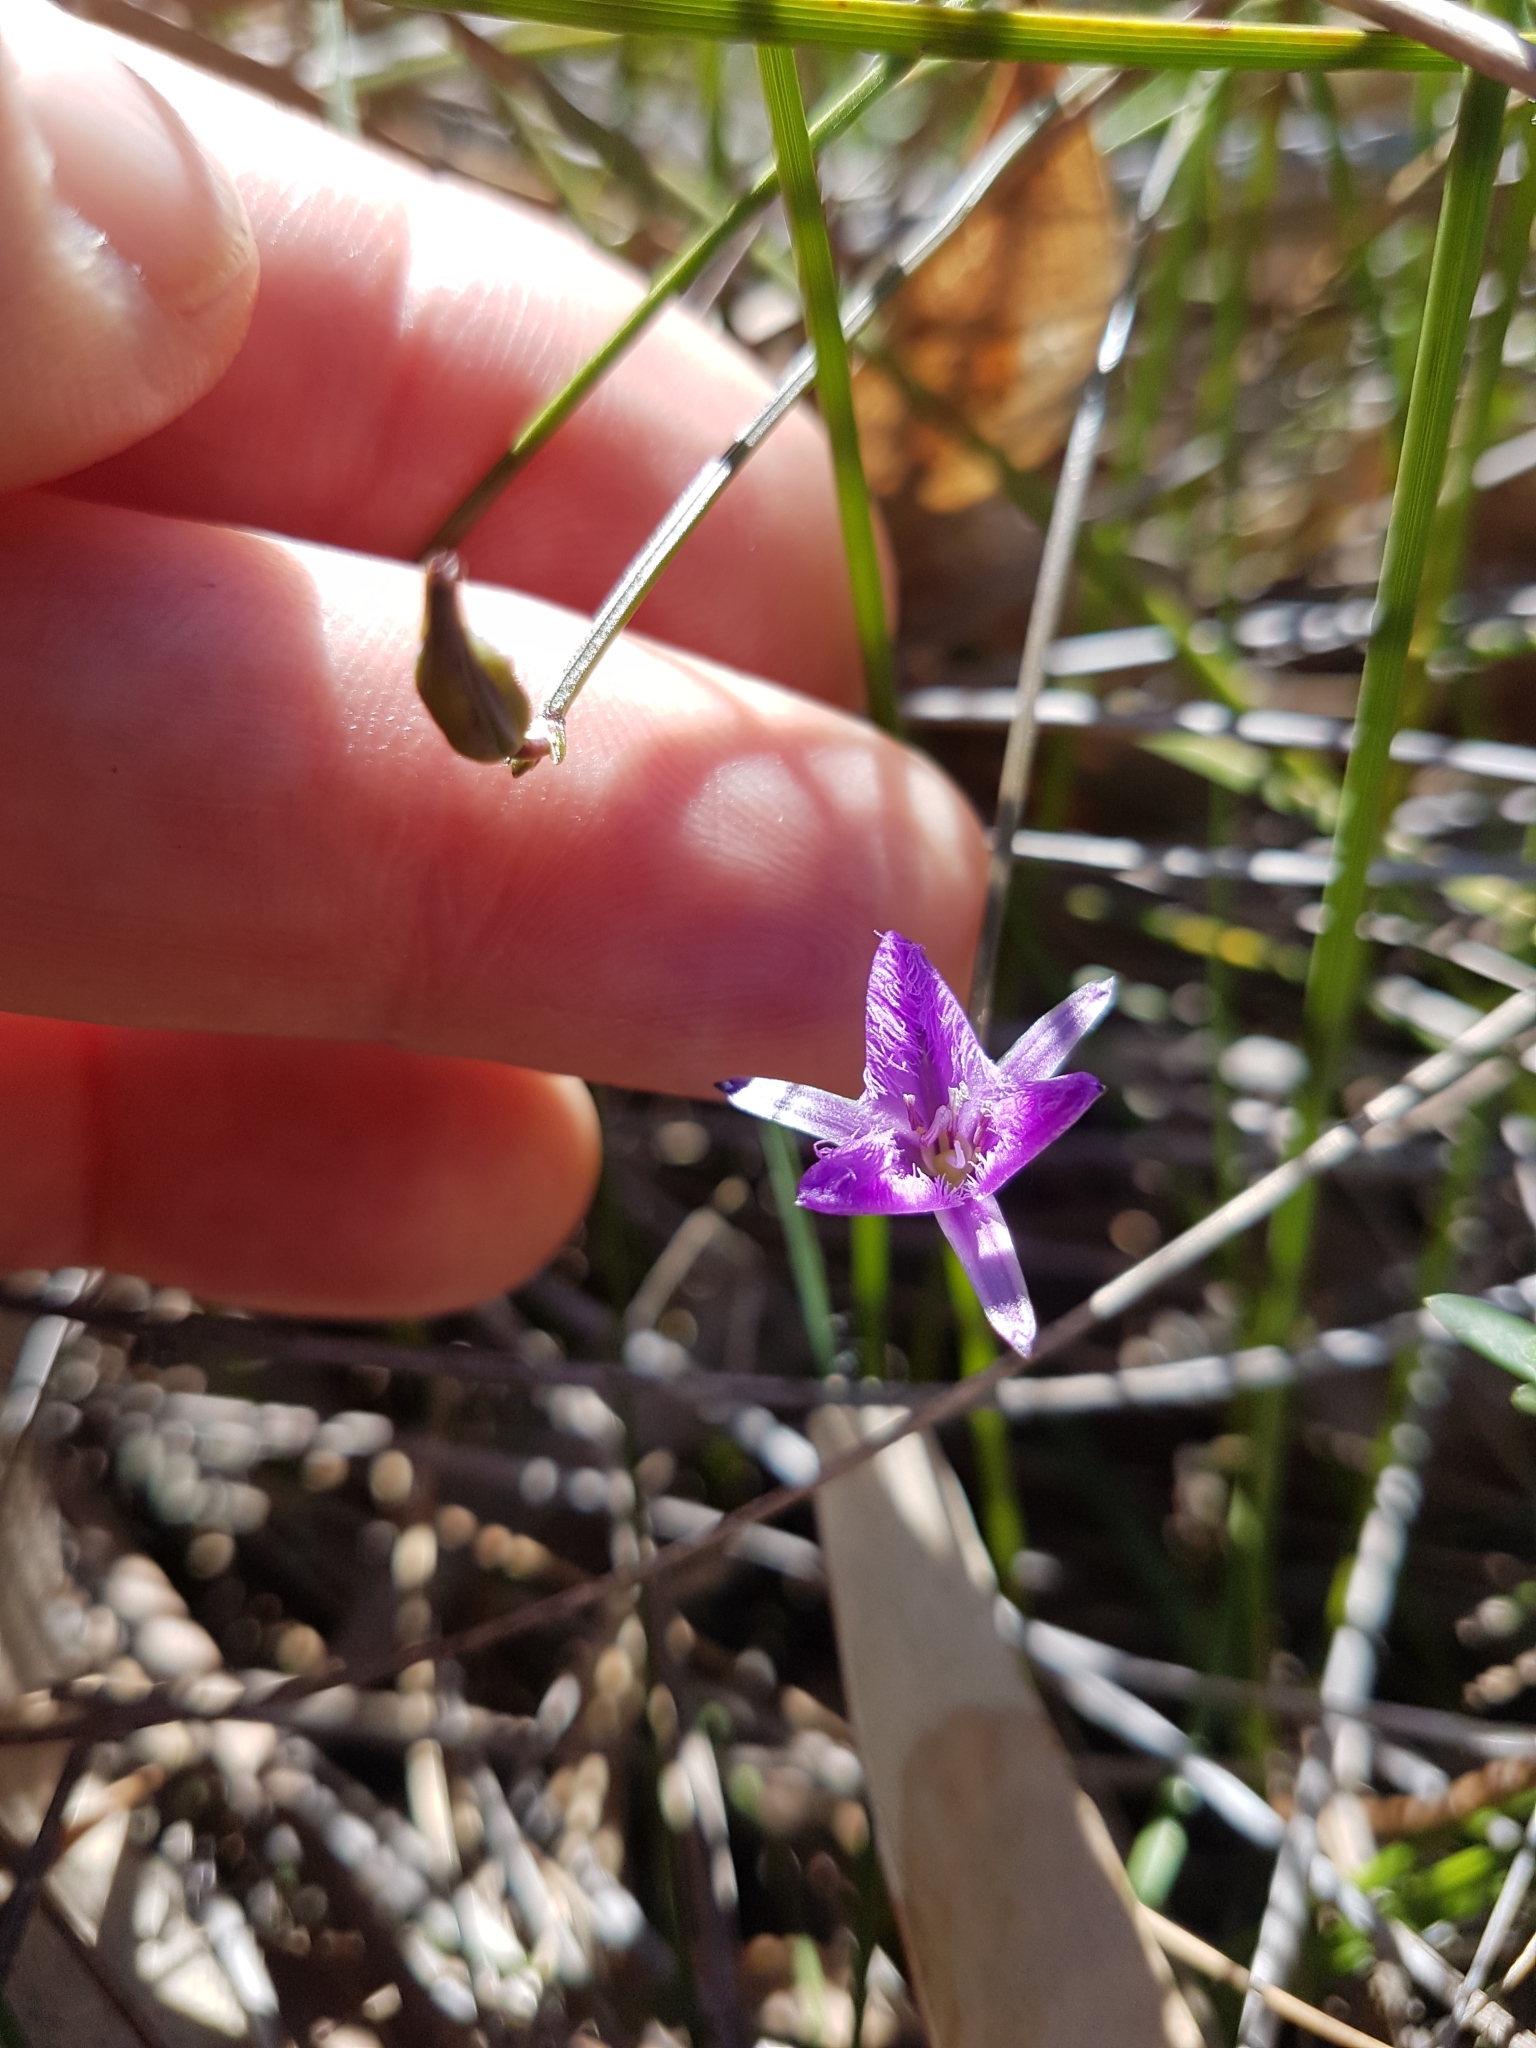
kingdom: Plantae
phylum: Tracheophyta
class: Liliopsida
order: Asparagales
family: Asparagaceae
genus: Thysanotus
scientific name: Thysanotus juncifolius
